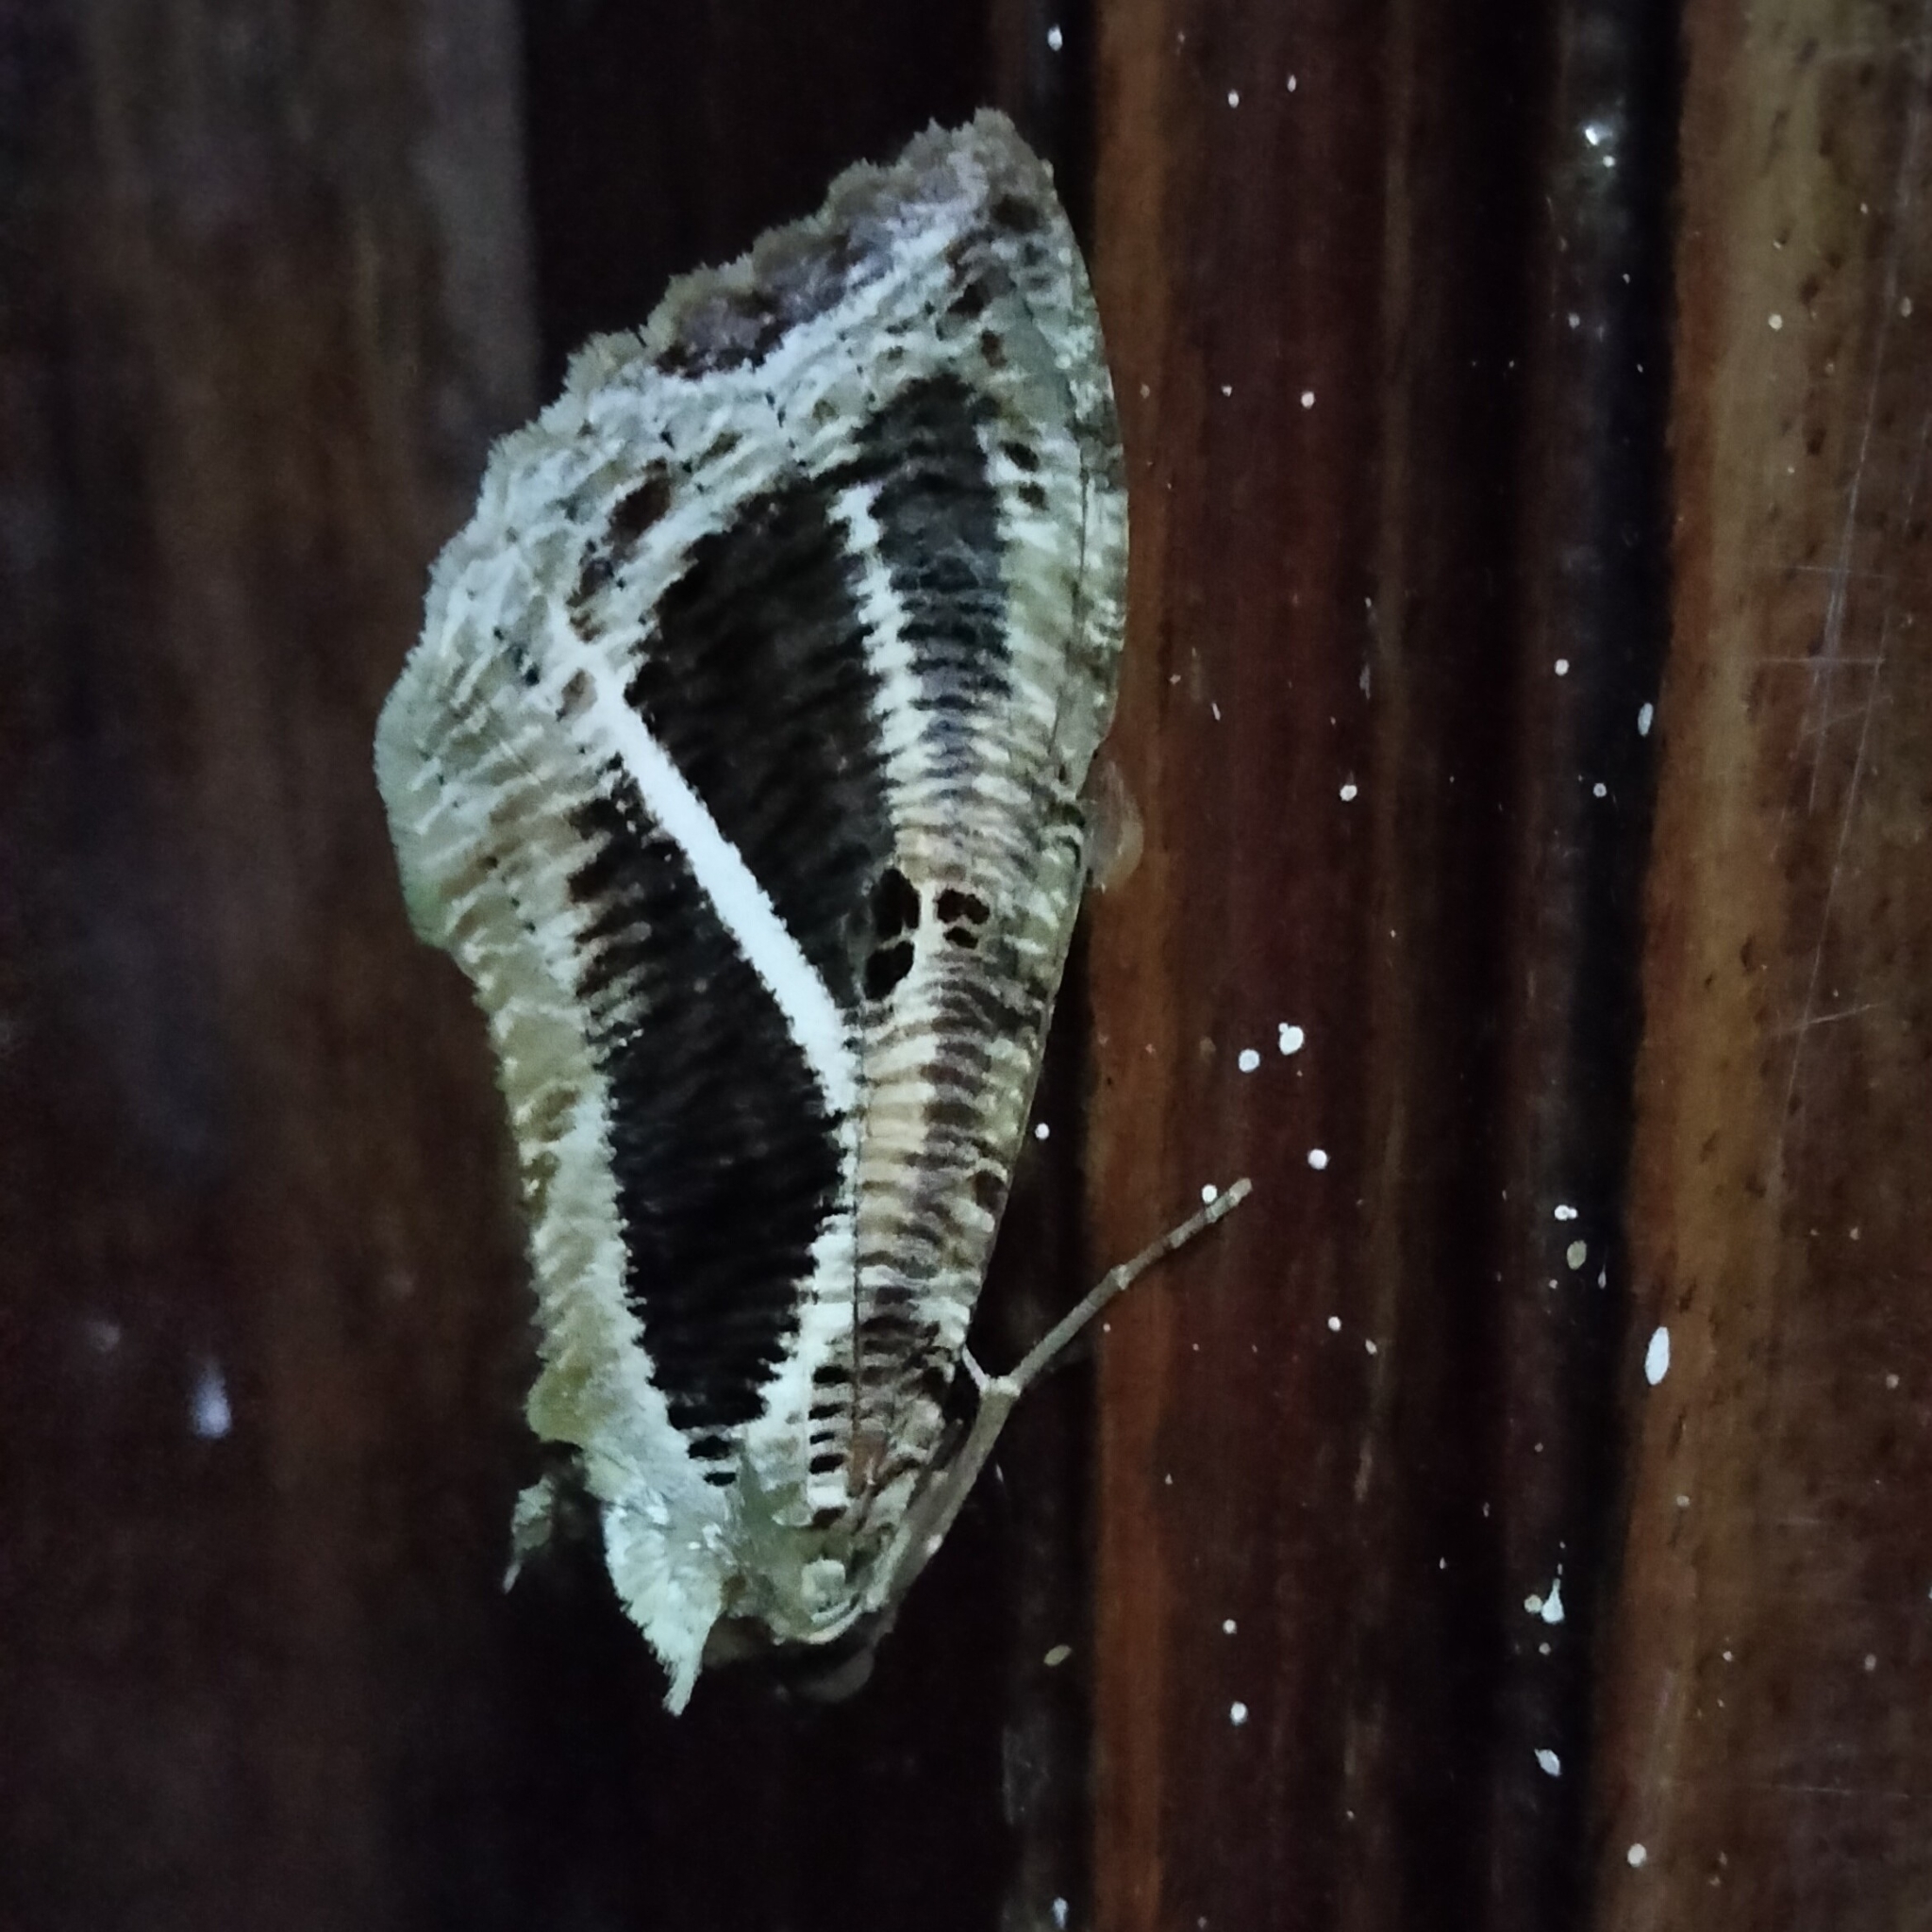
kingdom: Animalia
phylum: Arthropoda
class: Insecta
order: Lepidoptera
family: Erebidae
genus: Eudocima
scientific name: Eudocima materna
